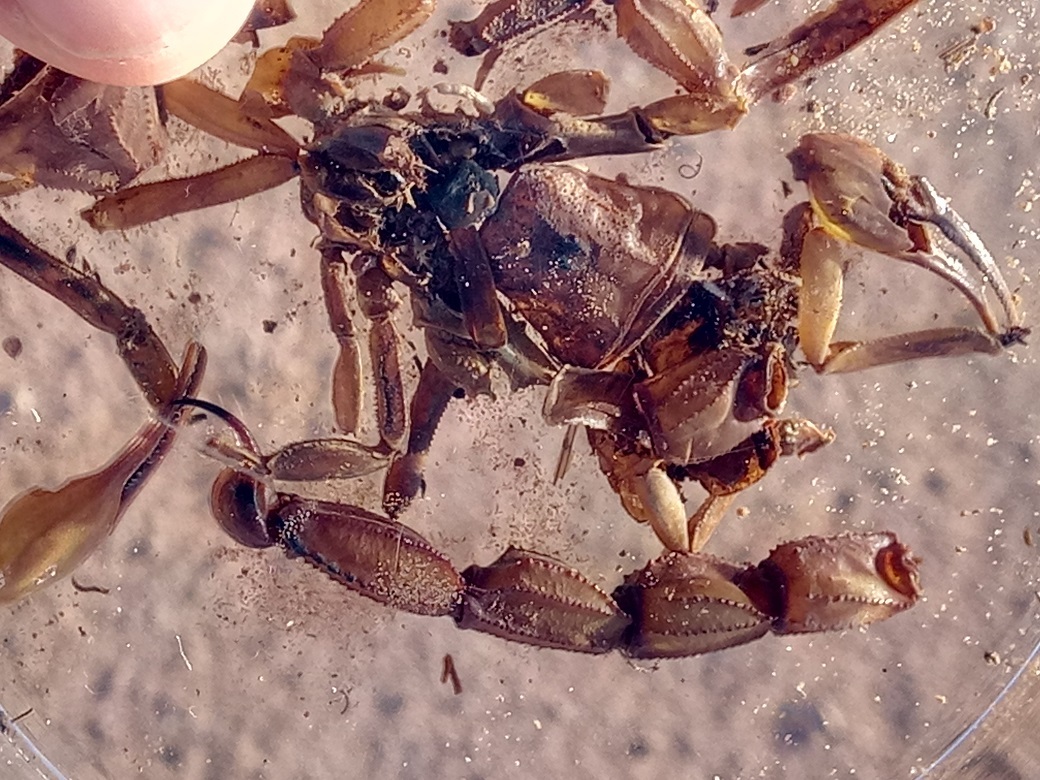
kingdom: Animalia
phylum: Arthropoda
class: Arachnida
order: Scorpiones
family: Buthidae
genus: Androctonus
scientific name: Androctonus amoreuxi
